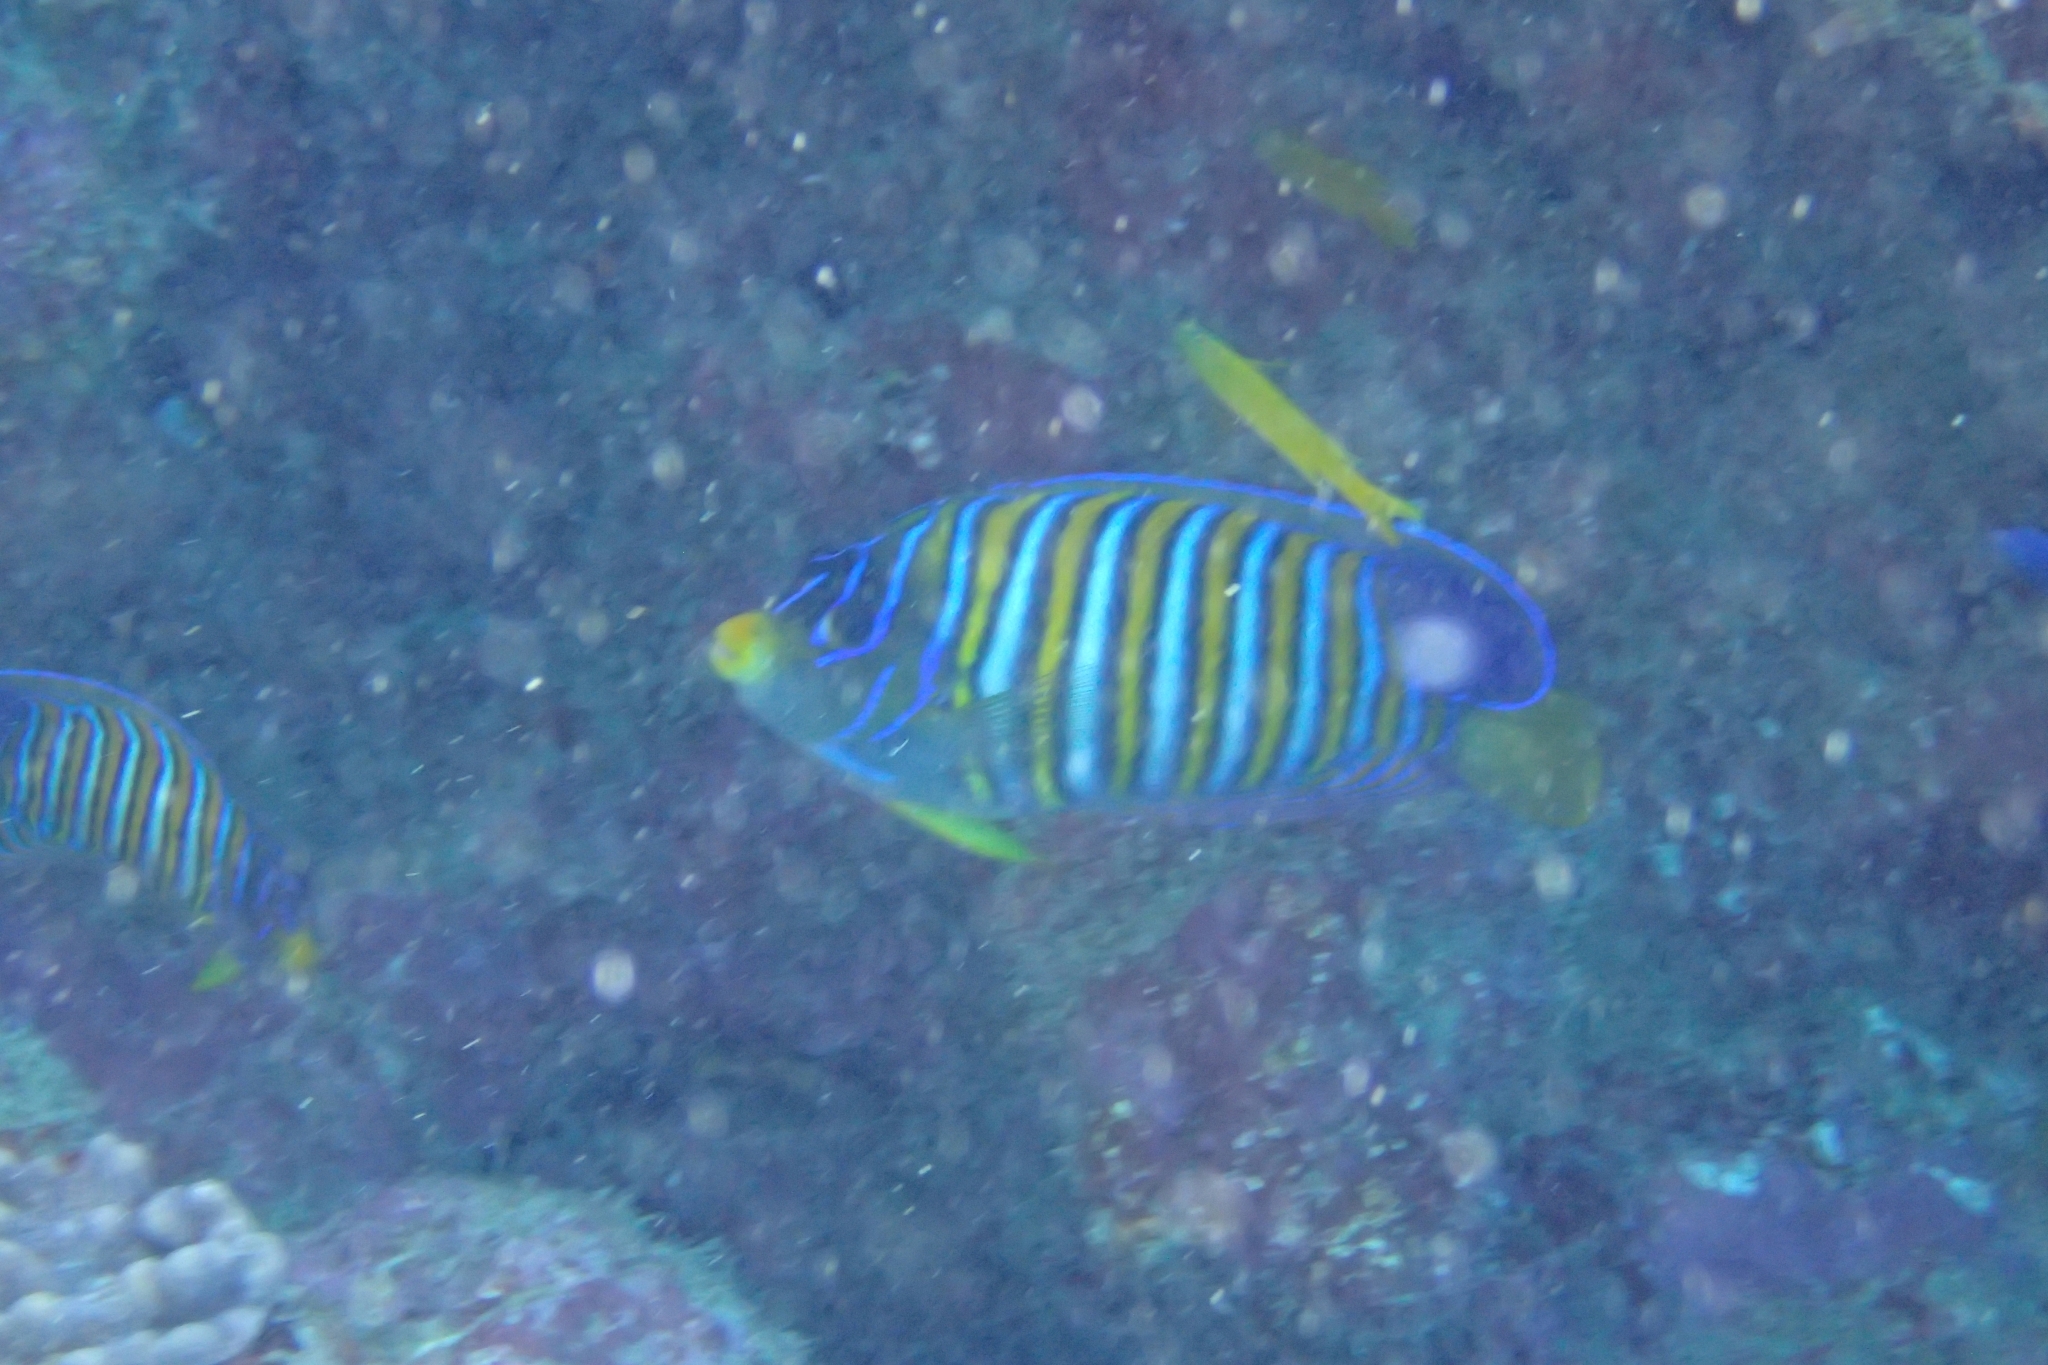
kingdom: Animalia
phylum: Chordata
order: Perciformes
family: Pomacanthidae
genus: Pygoplites
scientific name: Pygoplites diacanthus
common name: Regal angelfish
